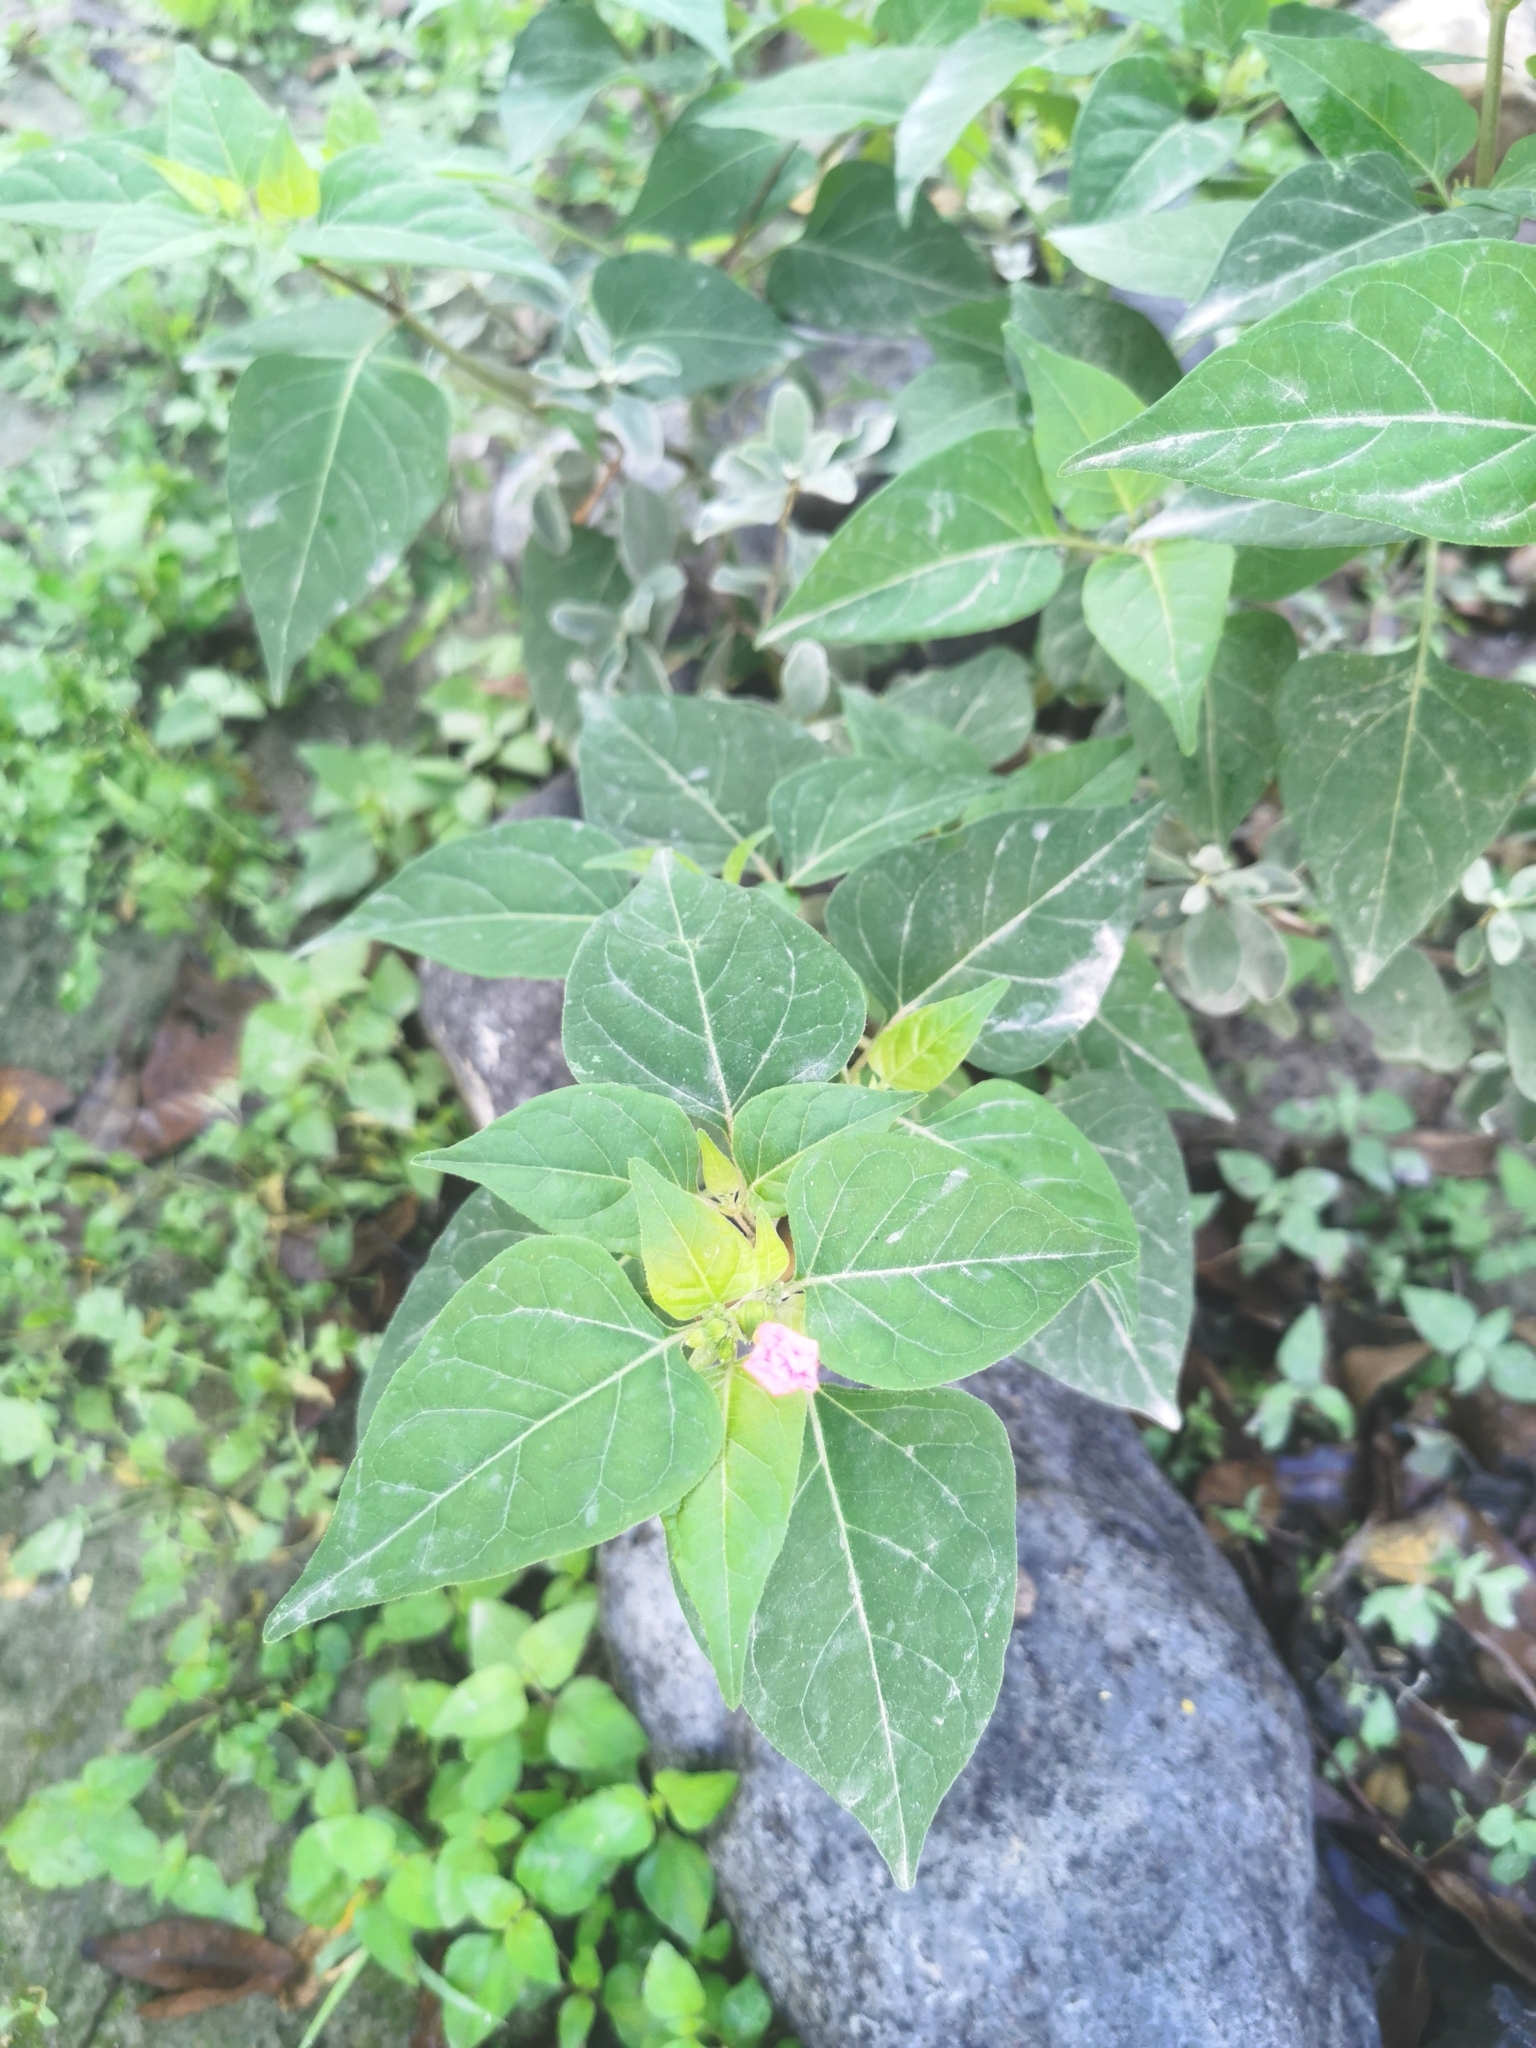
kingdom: Plantae
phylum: Tracheophyta
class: Magnoliopsida
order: Caryophyllales
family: Nyctaginaceae
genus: Mirabilis
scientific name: Mirabilis jalapa
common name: Marvel-of-peru
